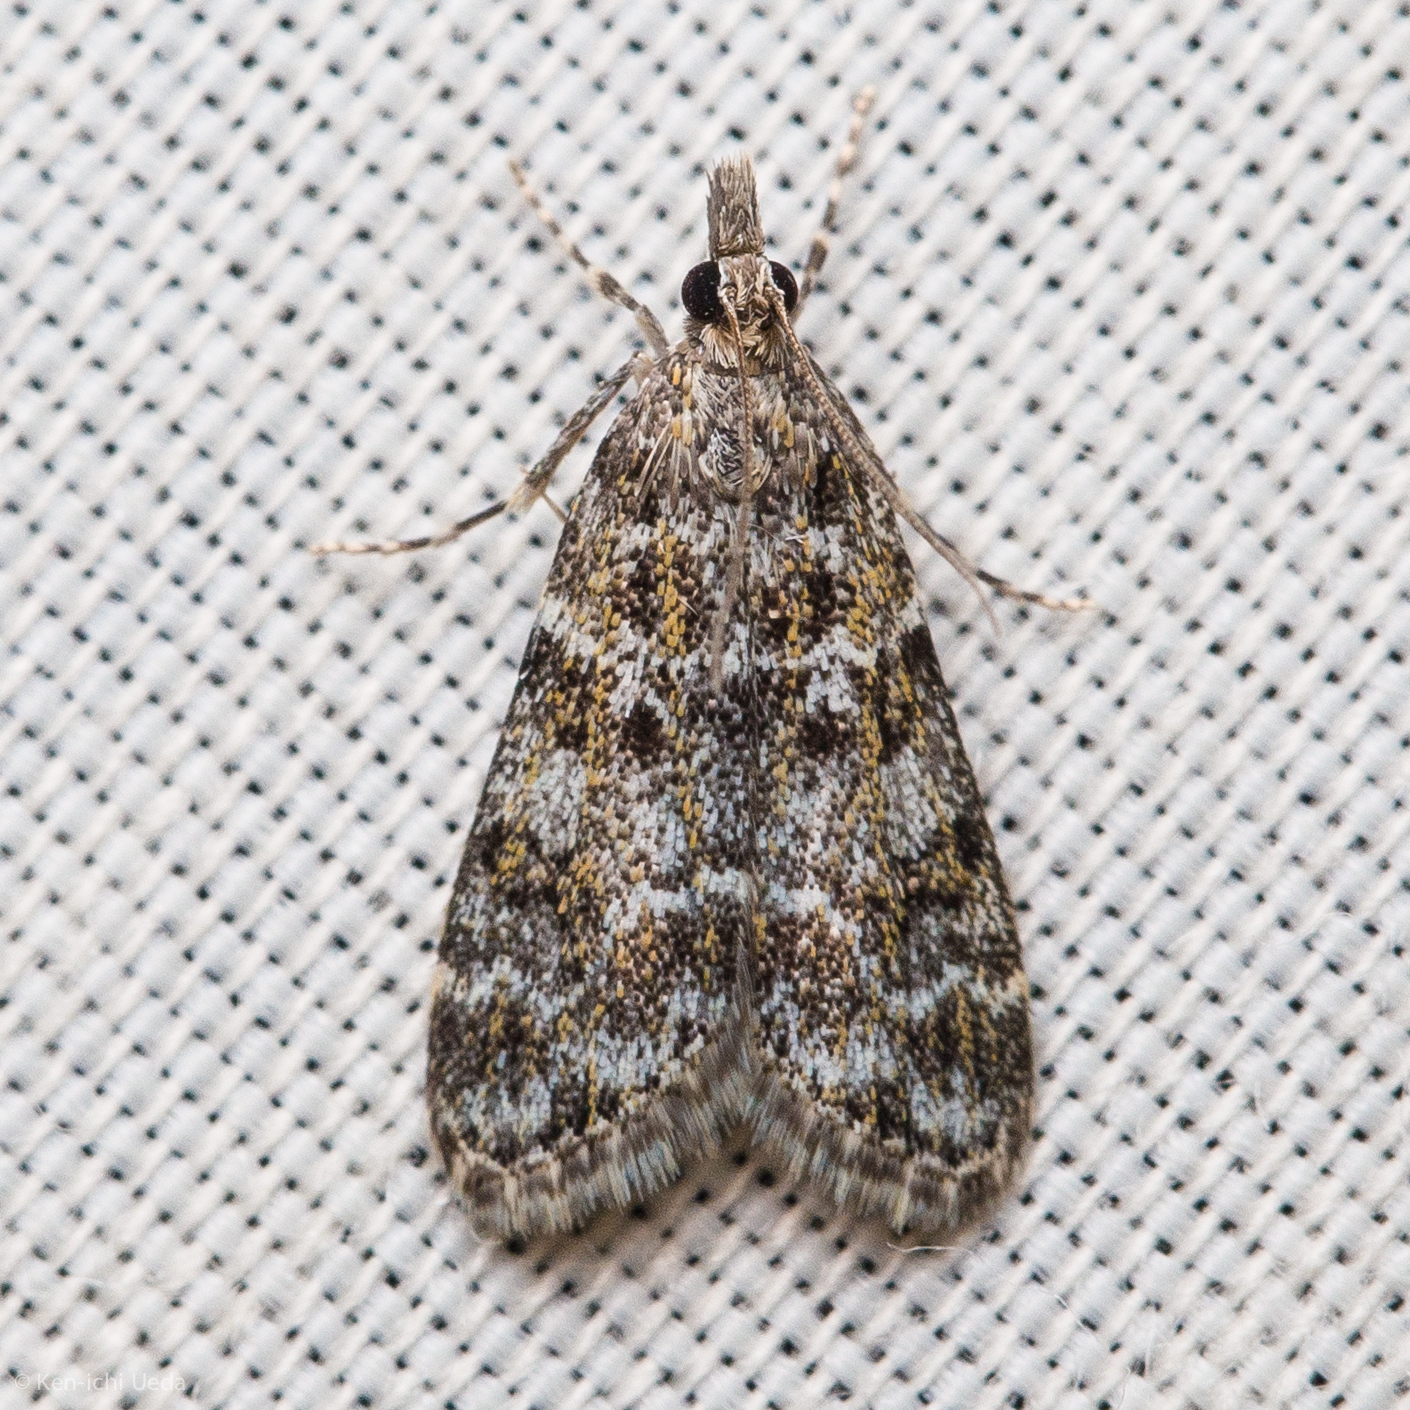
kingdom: Animalia
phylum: Arthropoda
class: Insecta
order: Lepidoptera
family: Crambidae
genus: Eudonia
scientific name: Eudonia echo
